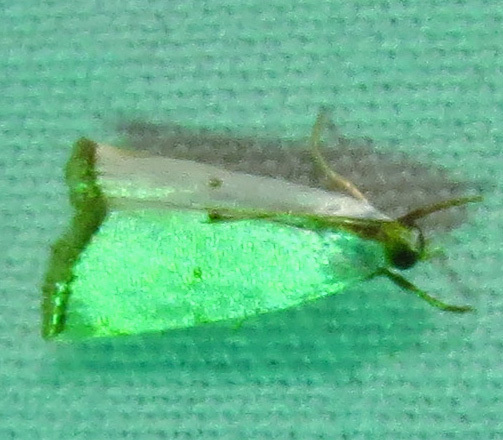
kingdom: Animalia
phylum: Arthropoda
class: Insecta
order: Lepidoptera
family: Crambidae
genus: Argyria
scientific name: Argyria pusillalis
